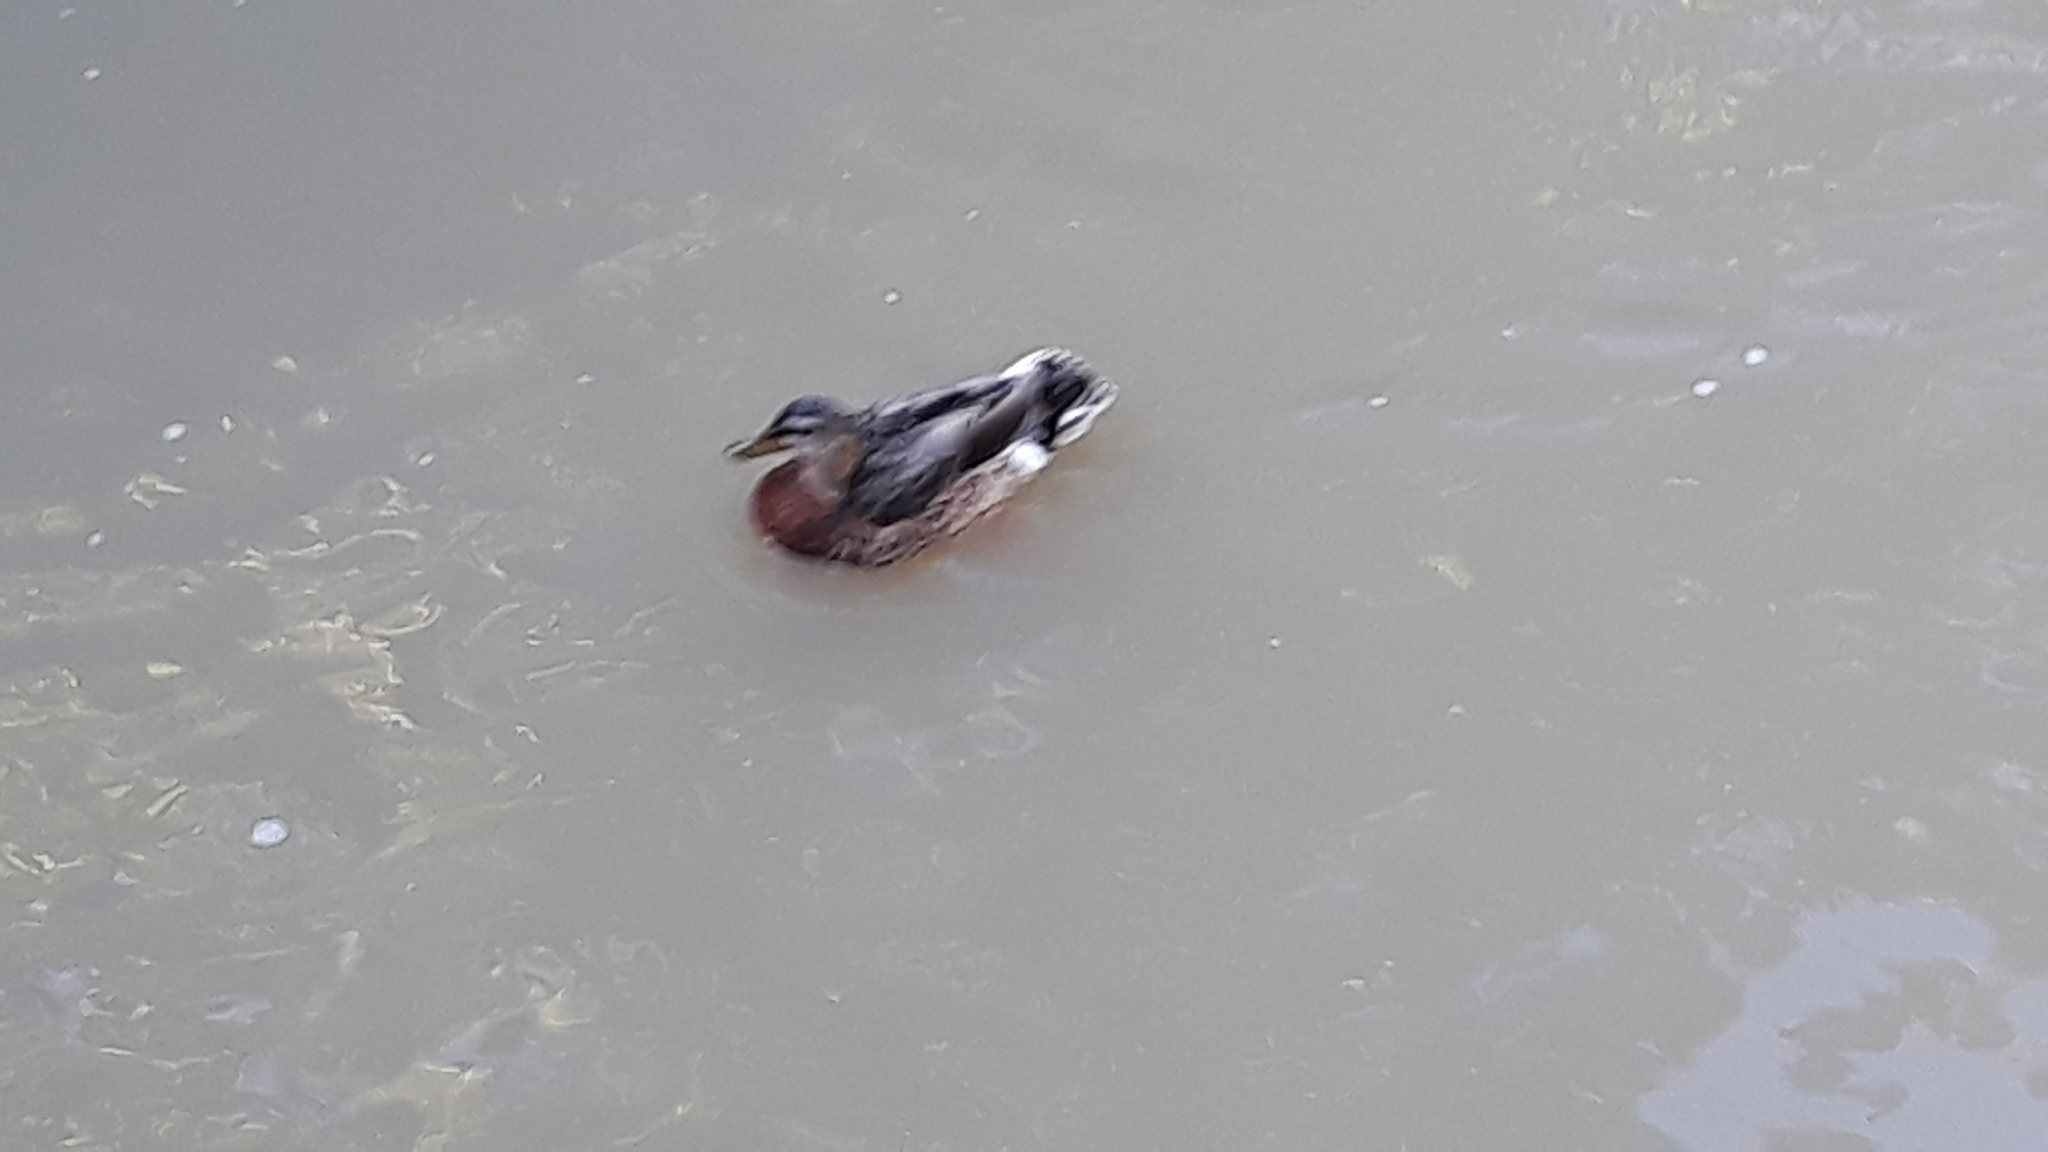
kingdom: Animalia
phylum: Chordata
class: Aves
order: Anseriformes
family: Anatidae
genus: Anas
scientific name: Anas platyrhynchos
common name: Mallard
